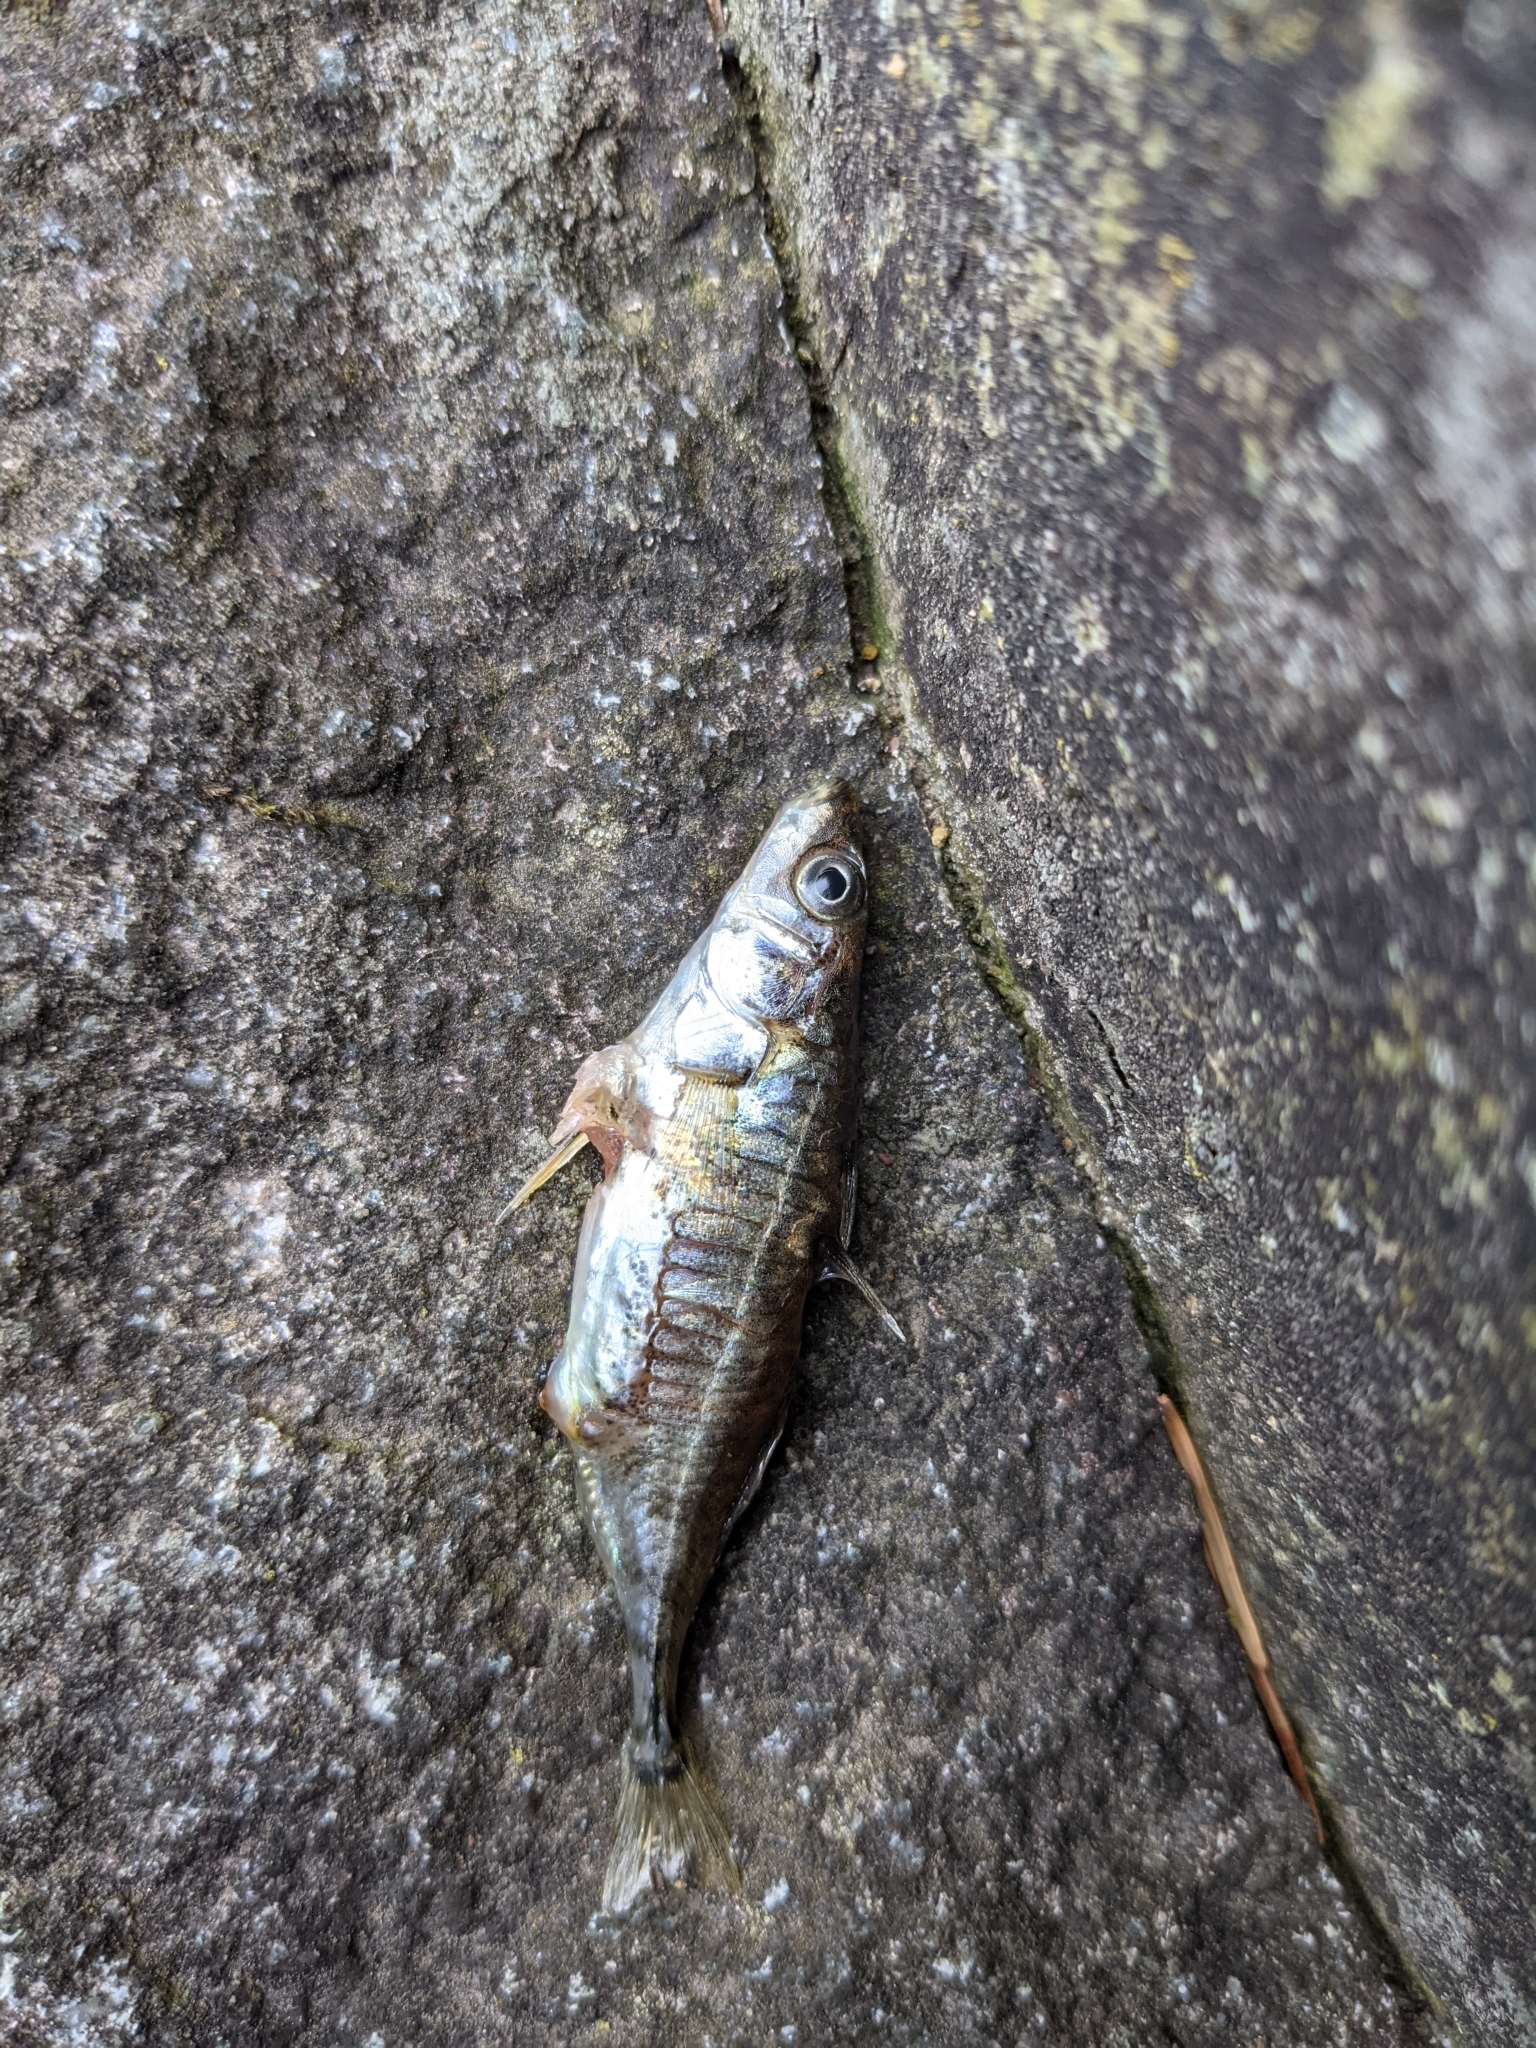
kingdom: Animalia
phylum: Chordata
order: Gasterosteiformes
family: Gasterosteidae
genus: Gasterosteus
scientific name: Gasterosteus aculeatus
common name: Three-spined stickleback
